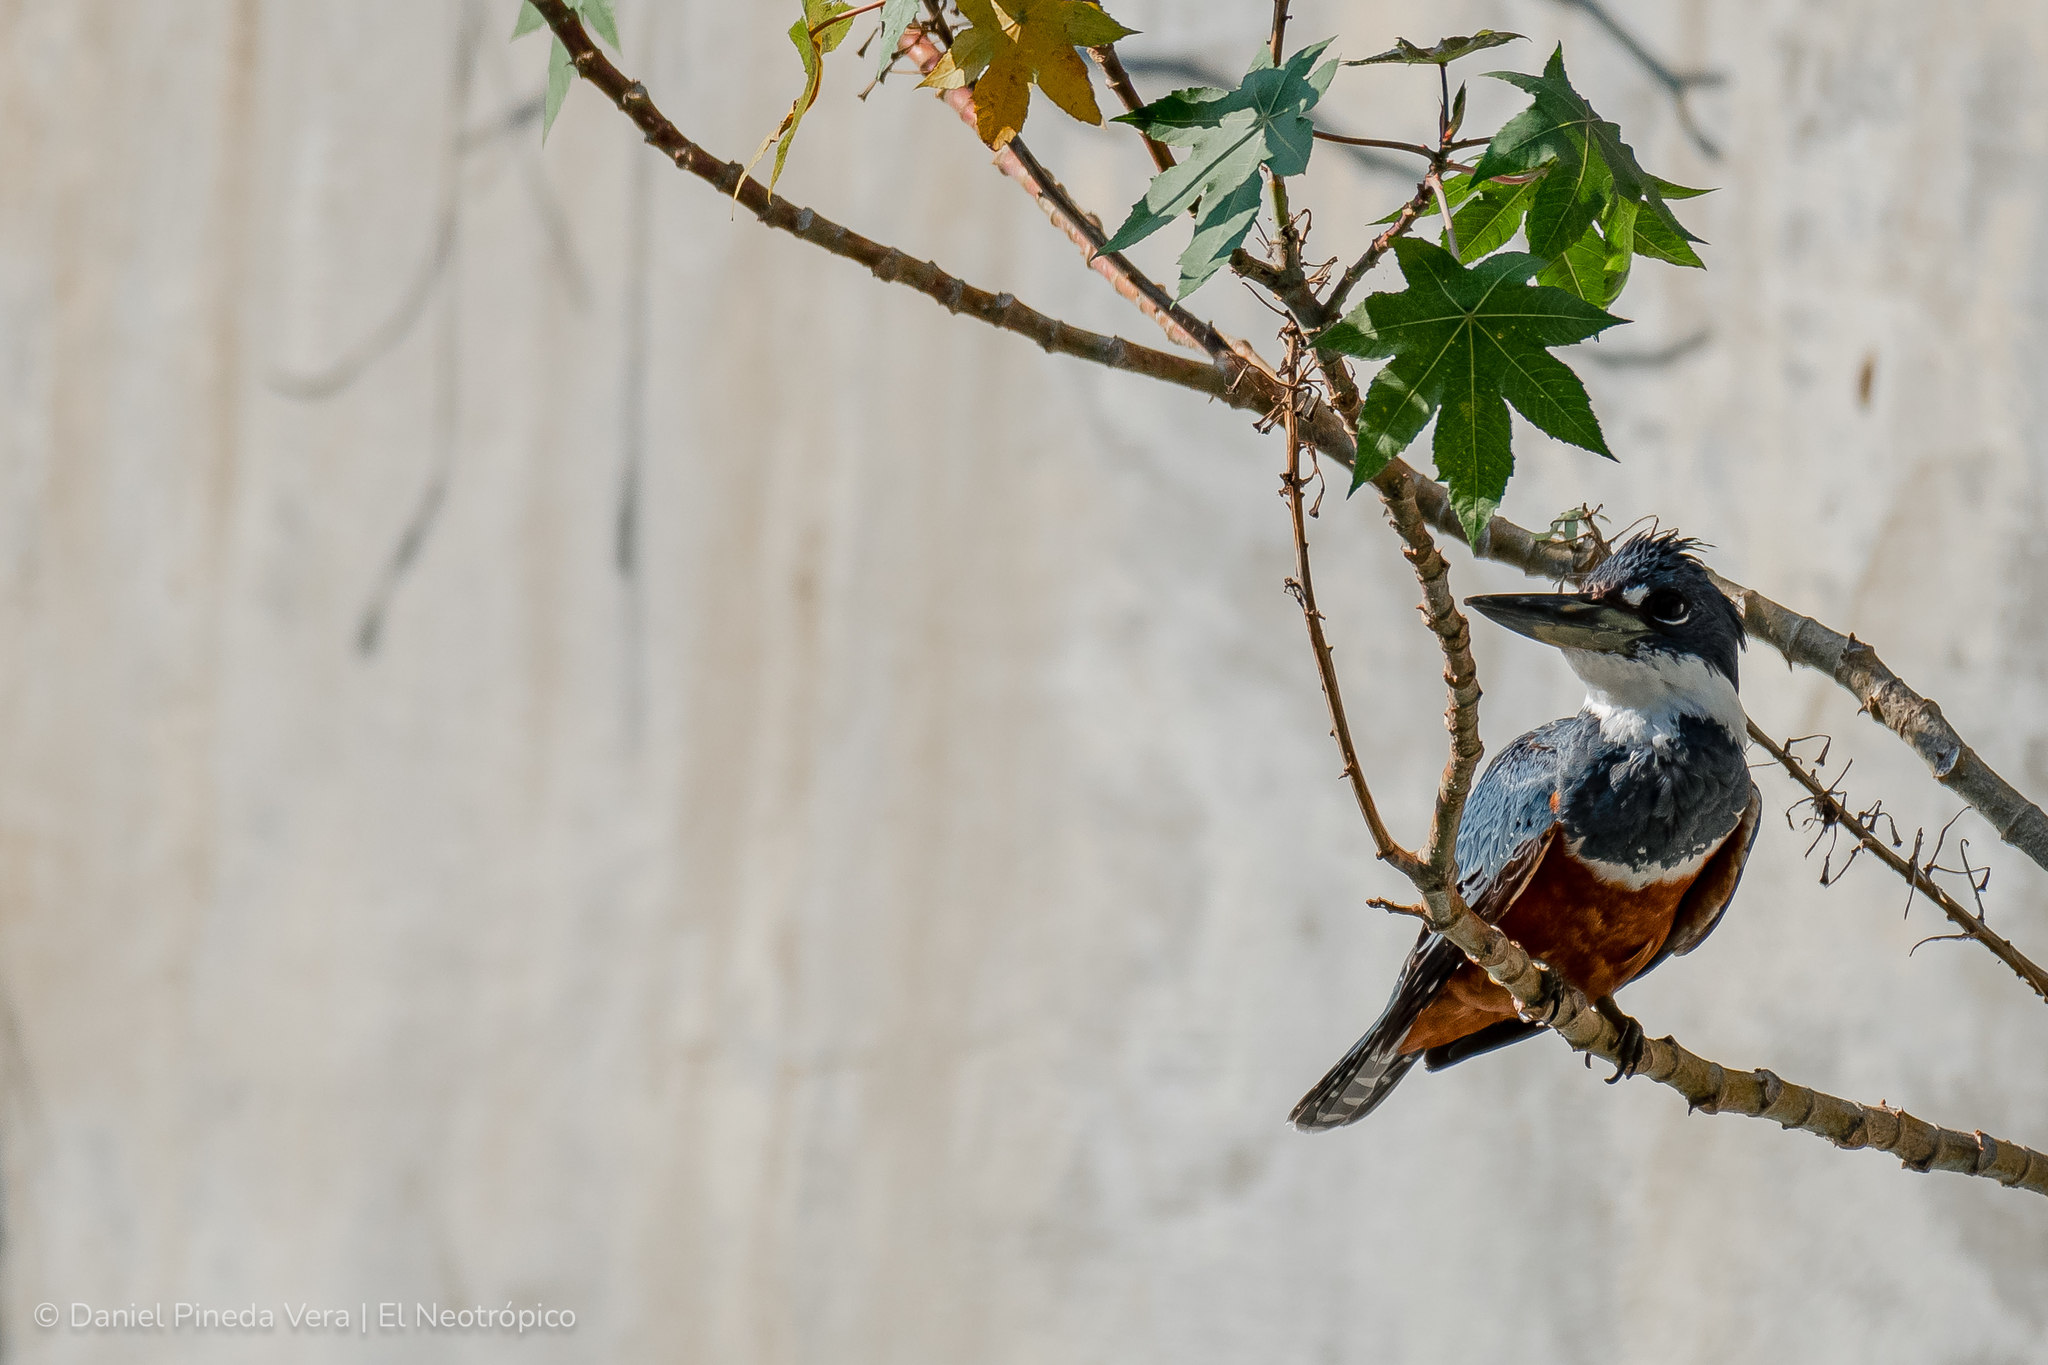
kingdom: Animalia
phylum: Chordata
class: Aves
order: Coraciiformes
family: Alcedinidae
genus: Megaceryle
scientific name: Megaceryle torquata
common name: Ringed kingfisher
